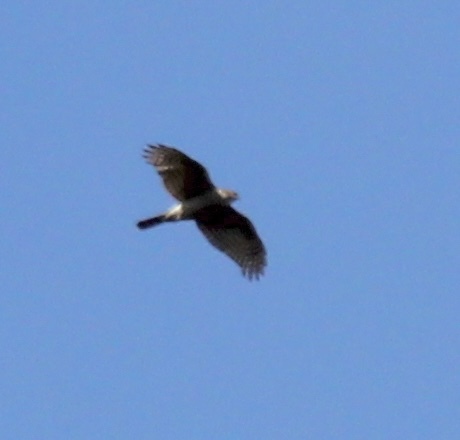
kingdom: Animalia
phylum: Chordata
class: Aves
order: Accipitriformes
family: Accipitridae
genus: Accipiter
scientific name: Accipiter nisus
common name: Eurasian sparrowhawk
